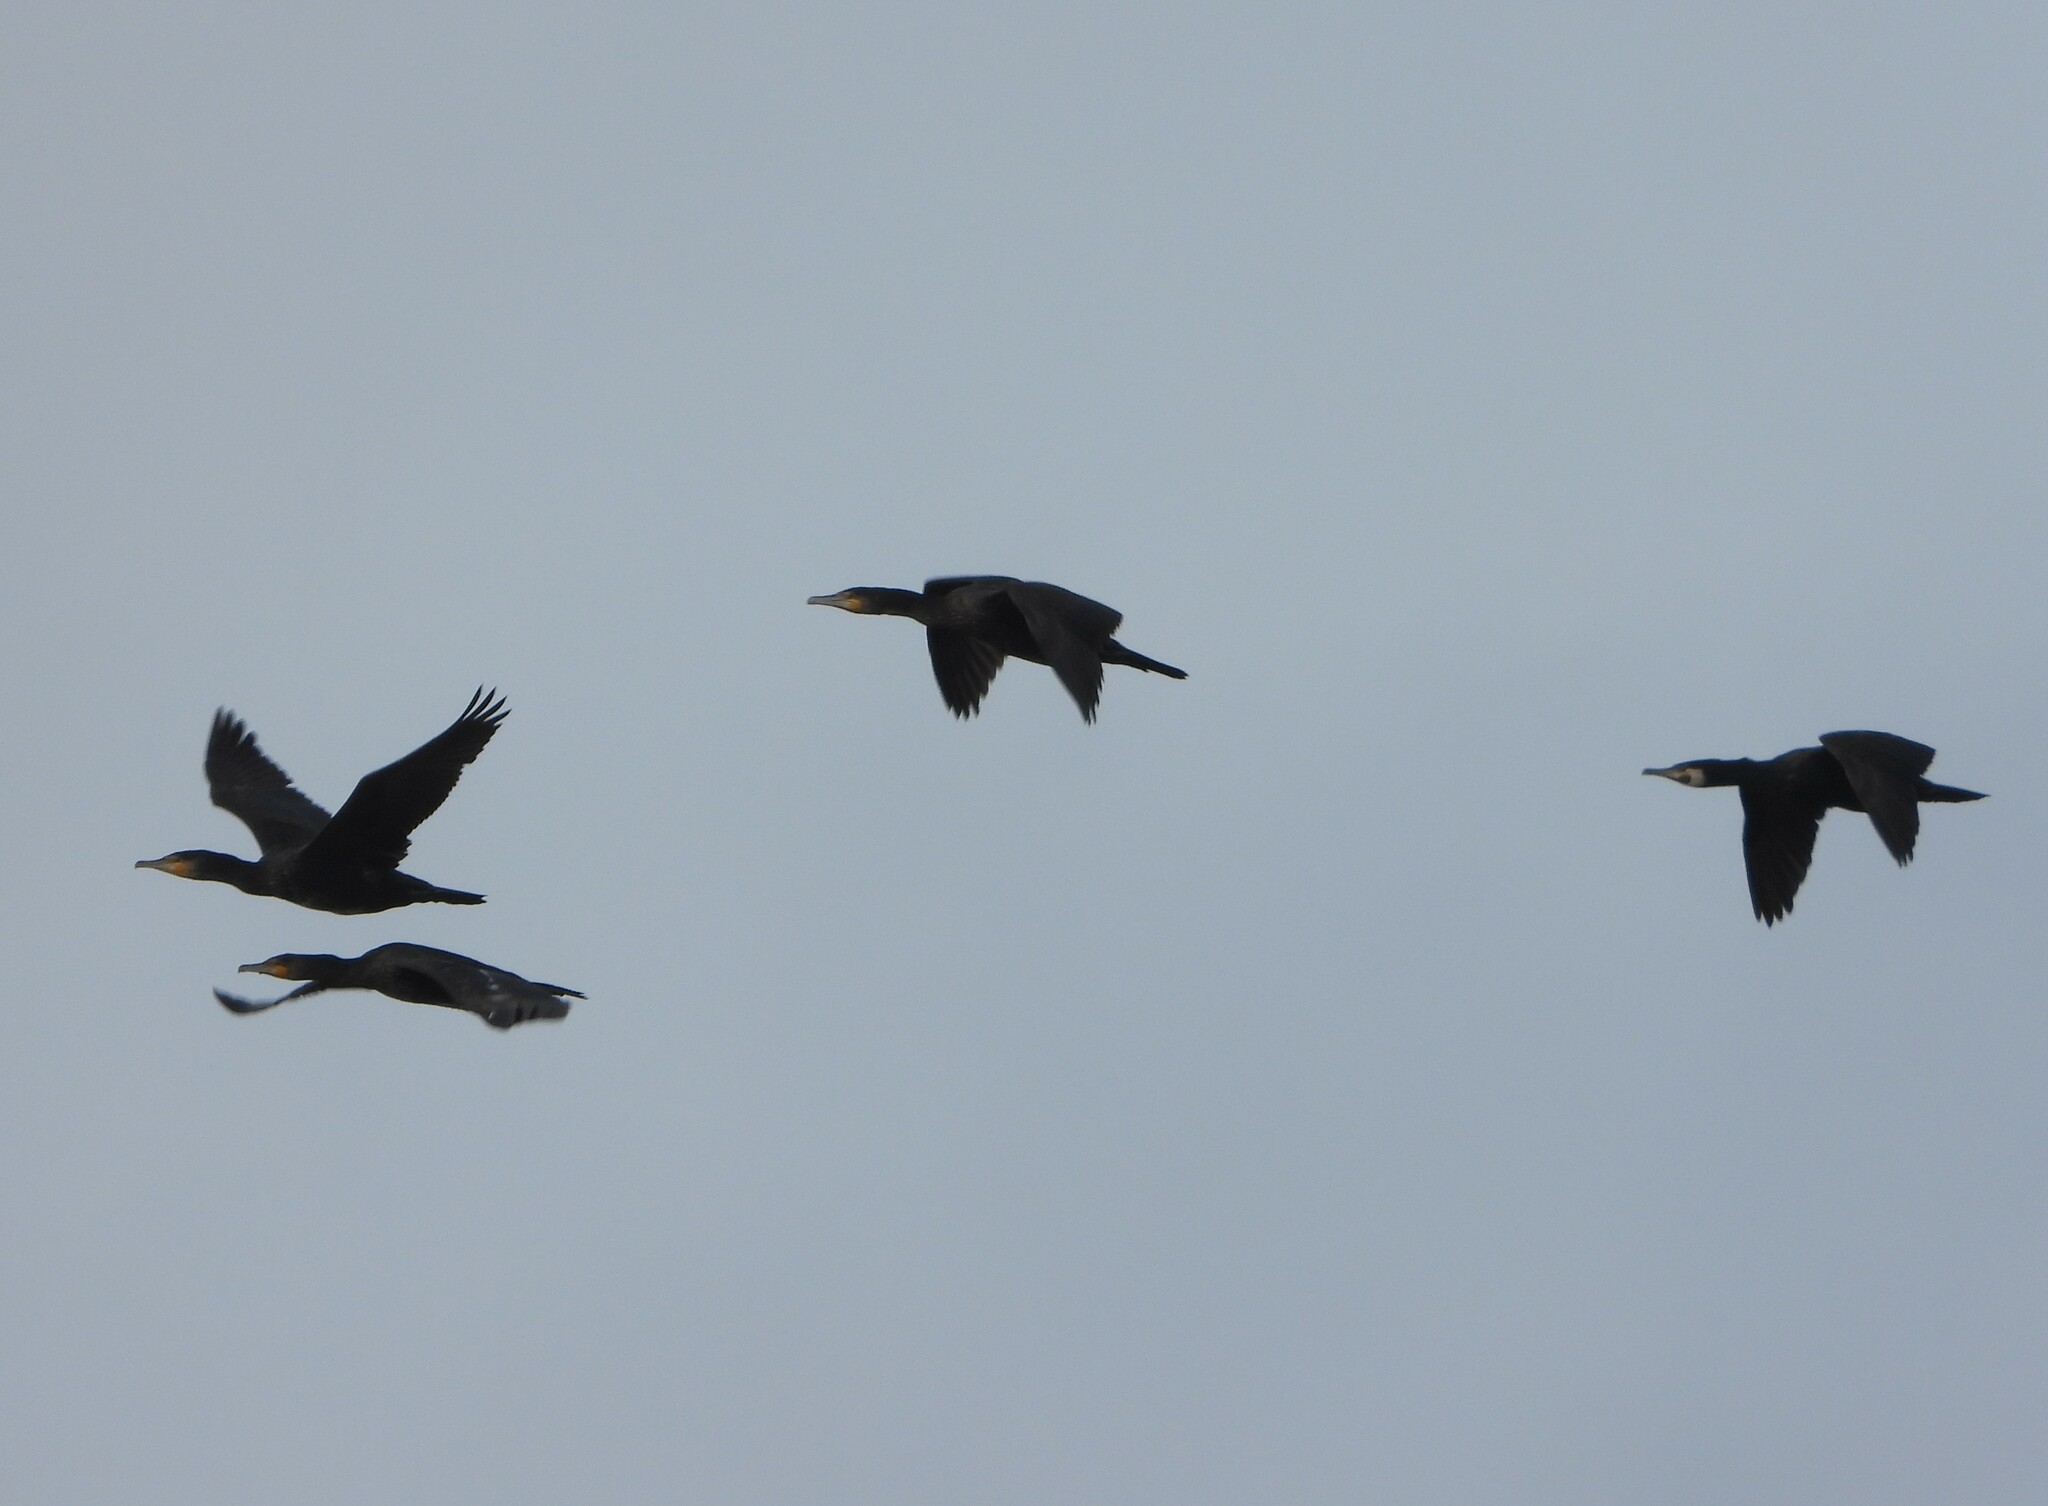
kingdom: Animalia
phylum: Chordata
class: Aves
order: Suliformes
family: Phalacrocoracidae
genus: Phalacrocorax
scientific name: Phalacrocorax carbo
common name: Great cormorant
